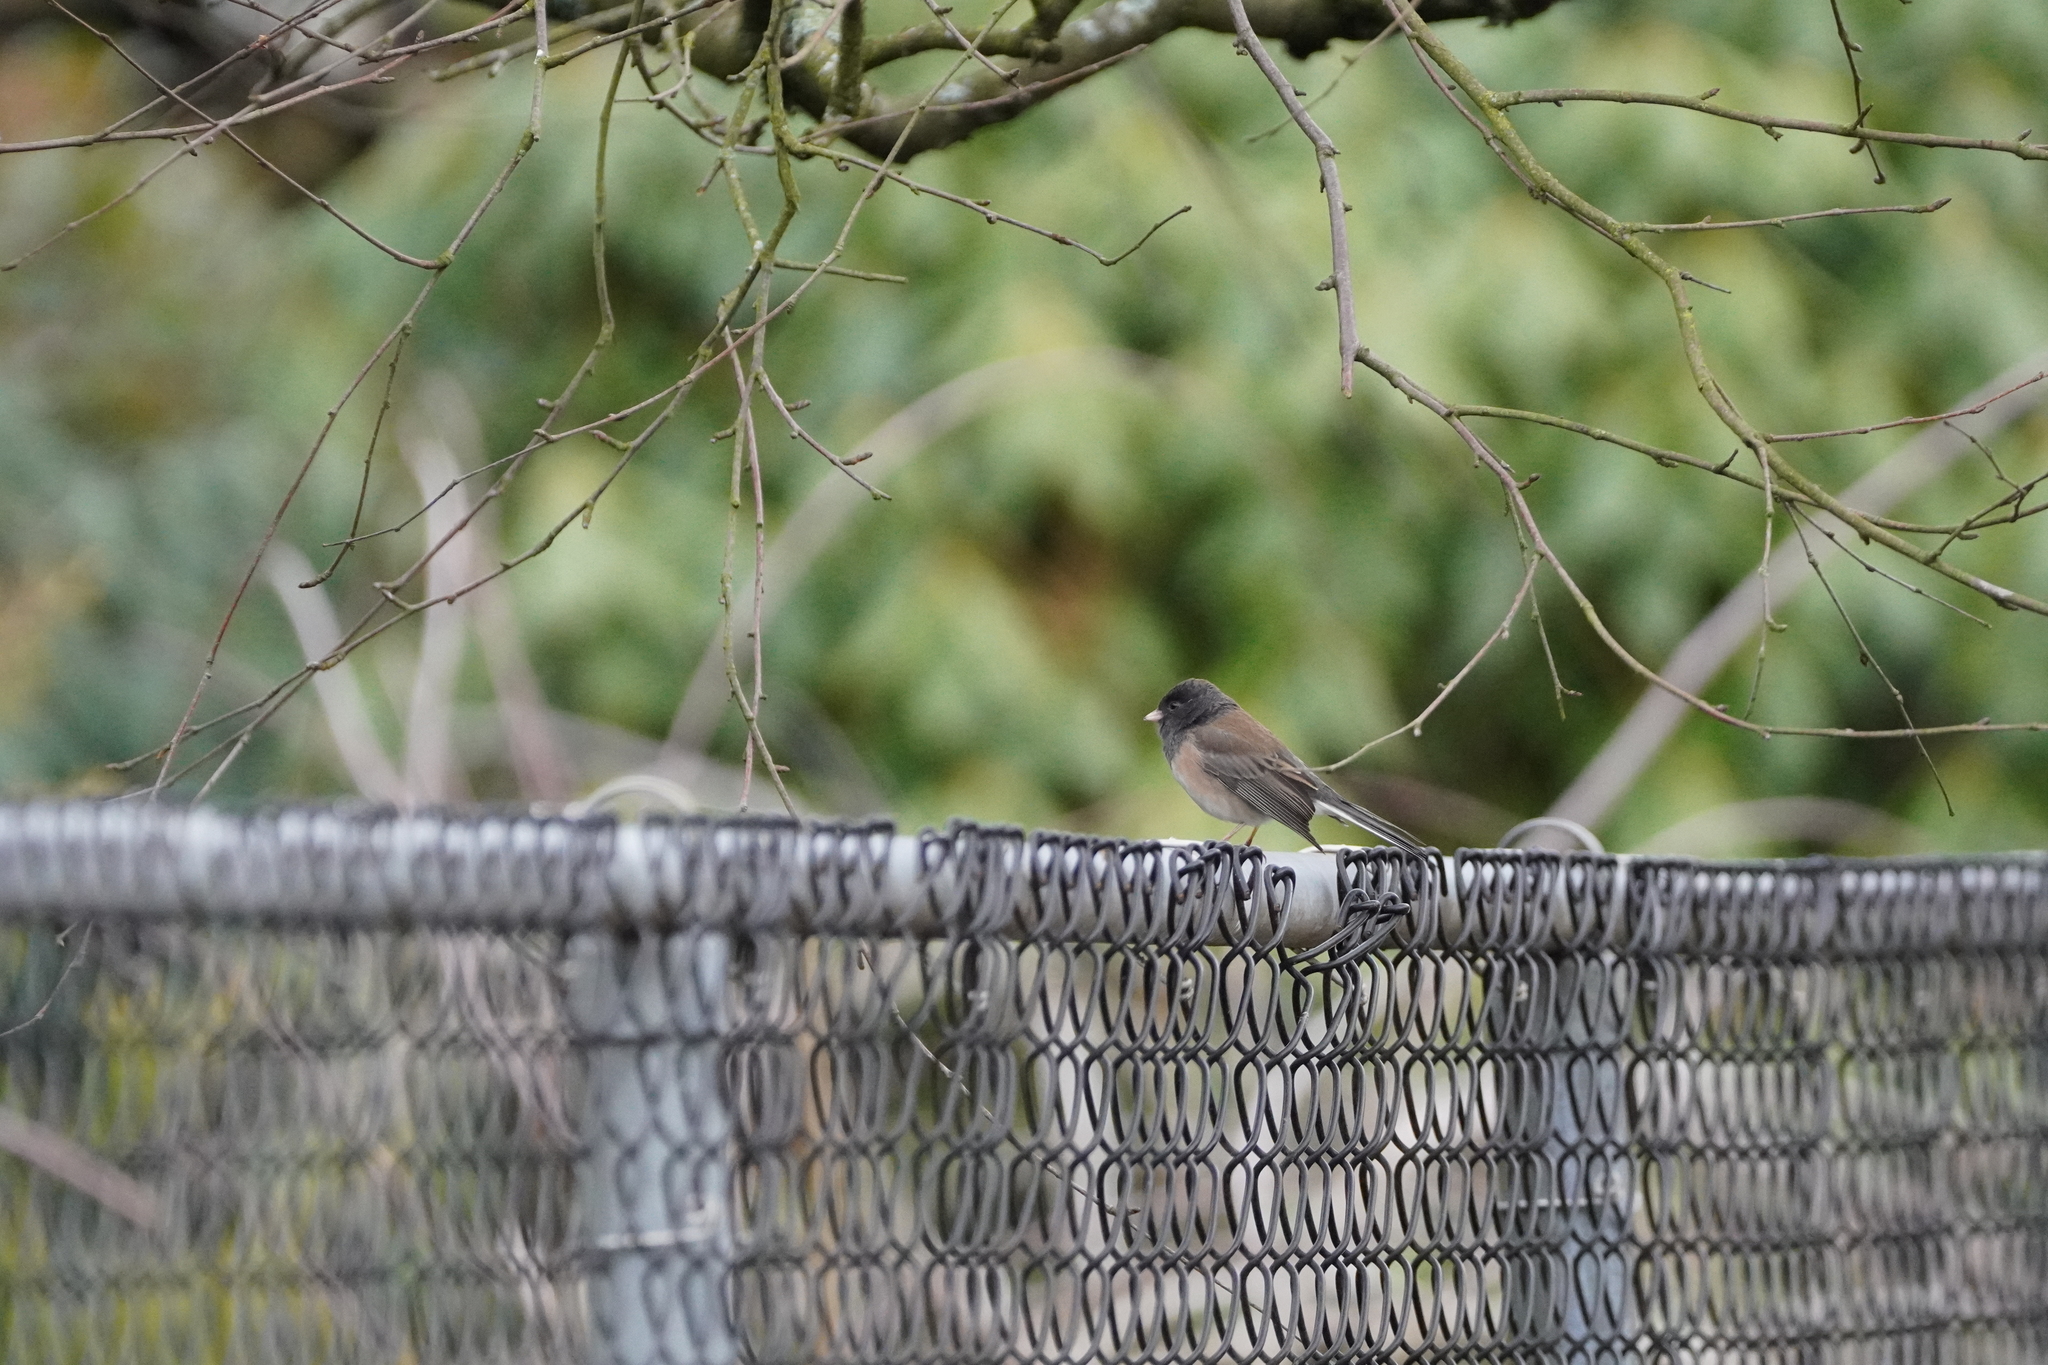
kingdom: Animalia
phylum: Chordata
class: Aves
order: Passeriformes
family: Passerellidae
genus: Junco
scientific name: Junco hyemalis
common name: Dark-eyed junco
